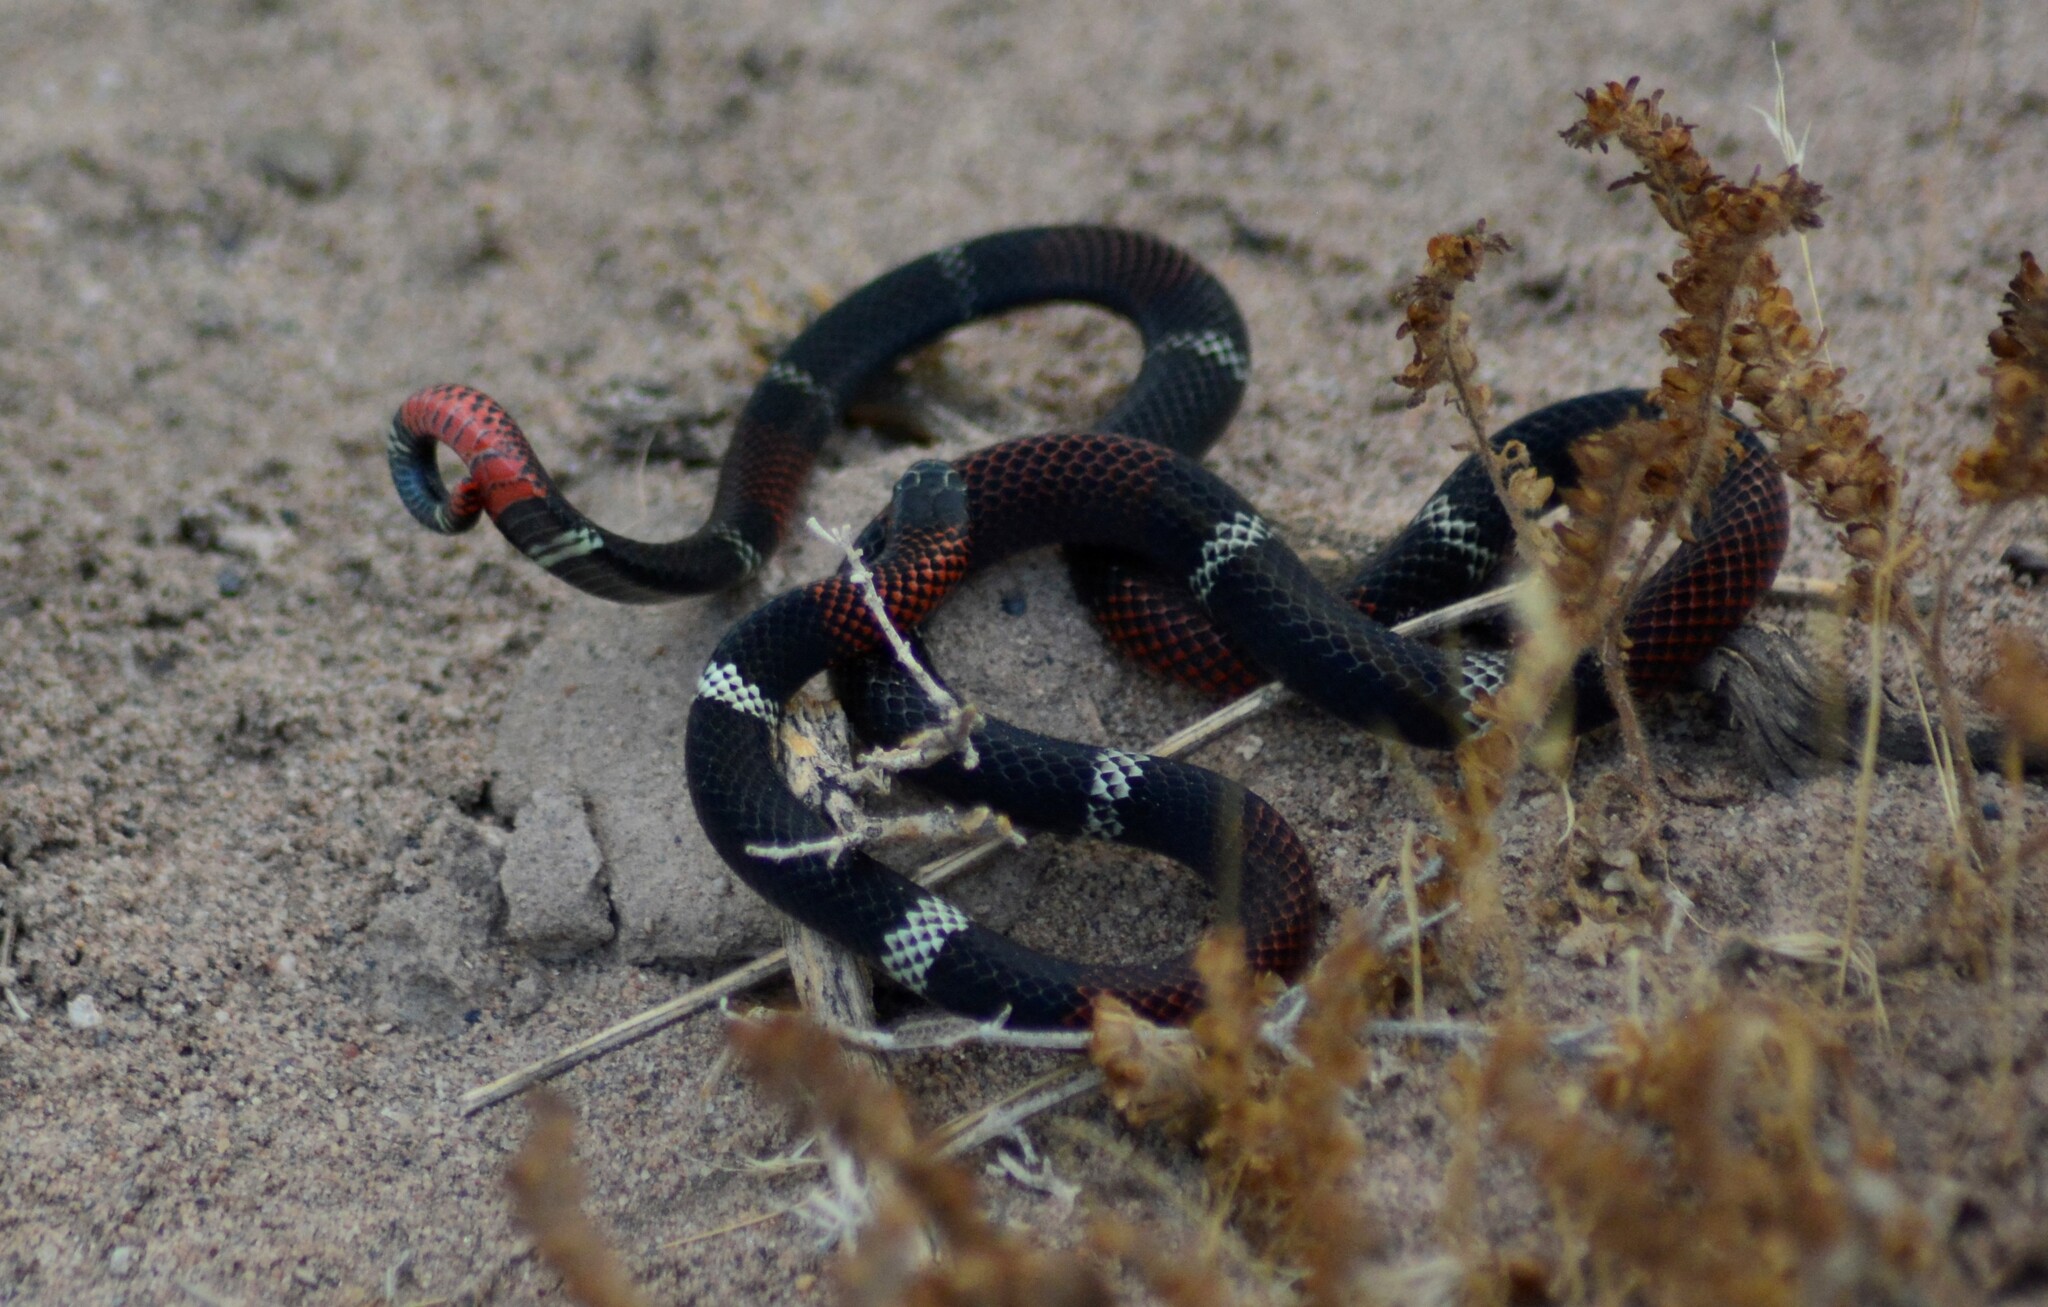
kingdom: Animalia
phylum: Chordata
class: Squamata
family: Elapidae
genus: Micrurus
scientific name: Micrurus pyrrhocryptus
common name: Argentinian coral snake
